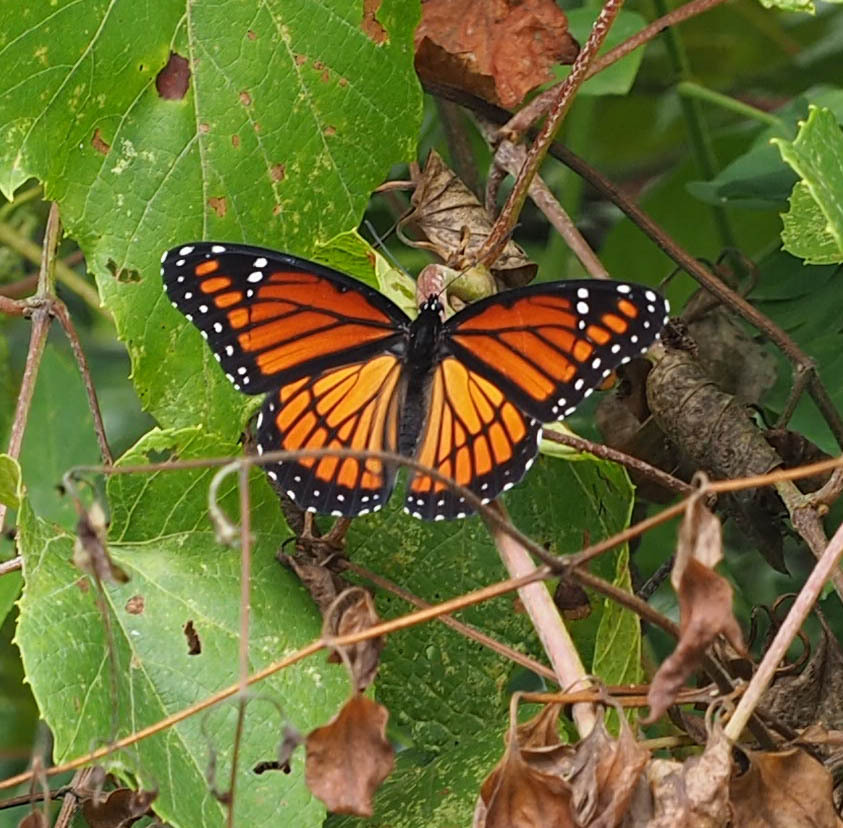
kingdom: Animalia
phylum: Arthropoda
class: Insecta
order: Lepidoptera
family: Nymphalidae
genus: Limenitis
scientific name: Limenitis archippus
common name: Viceroy
